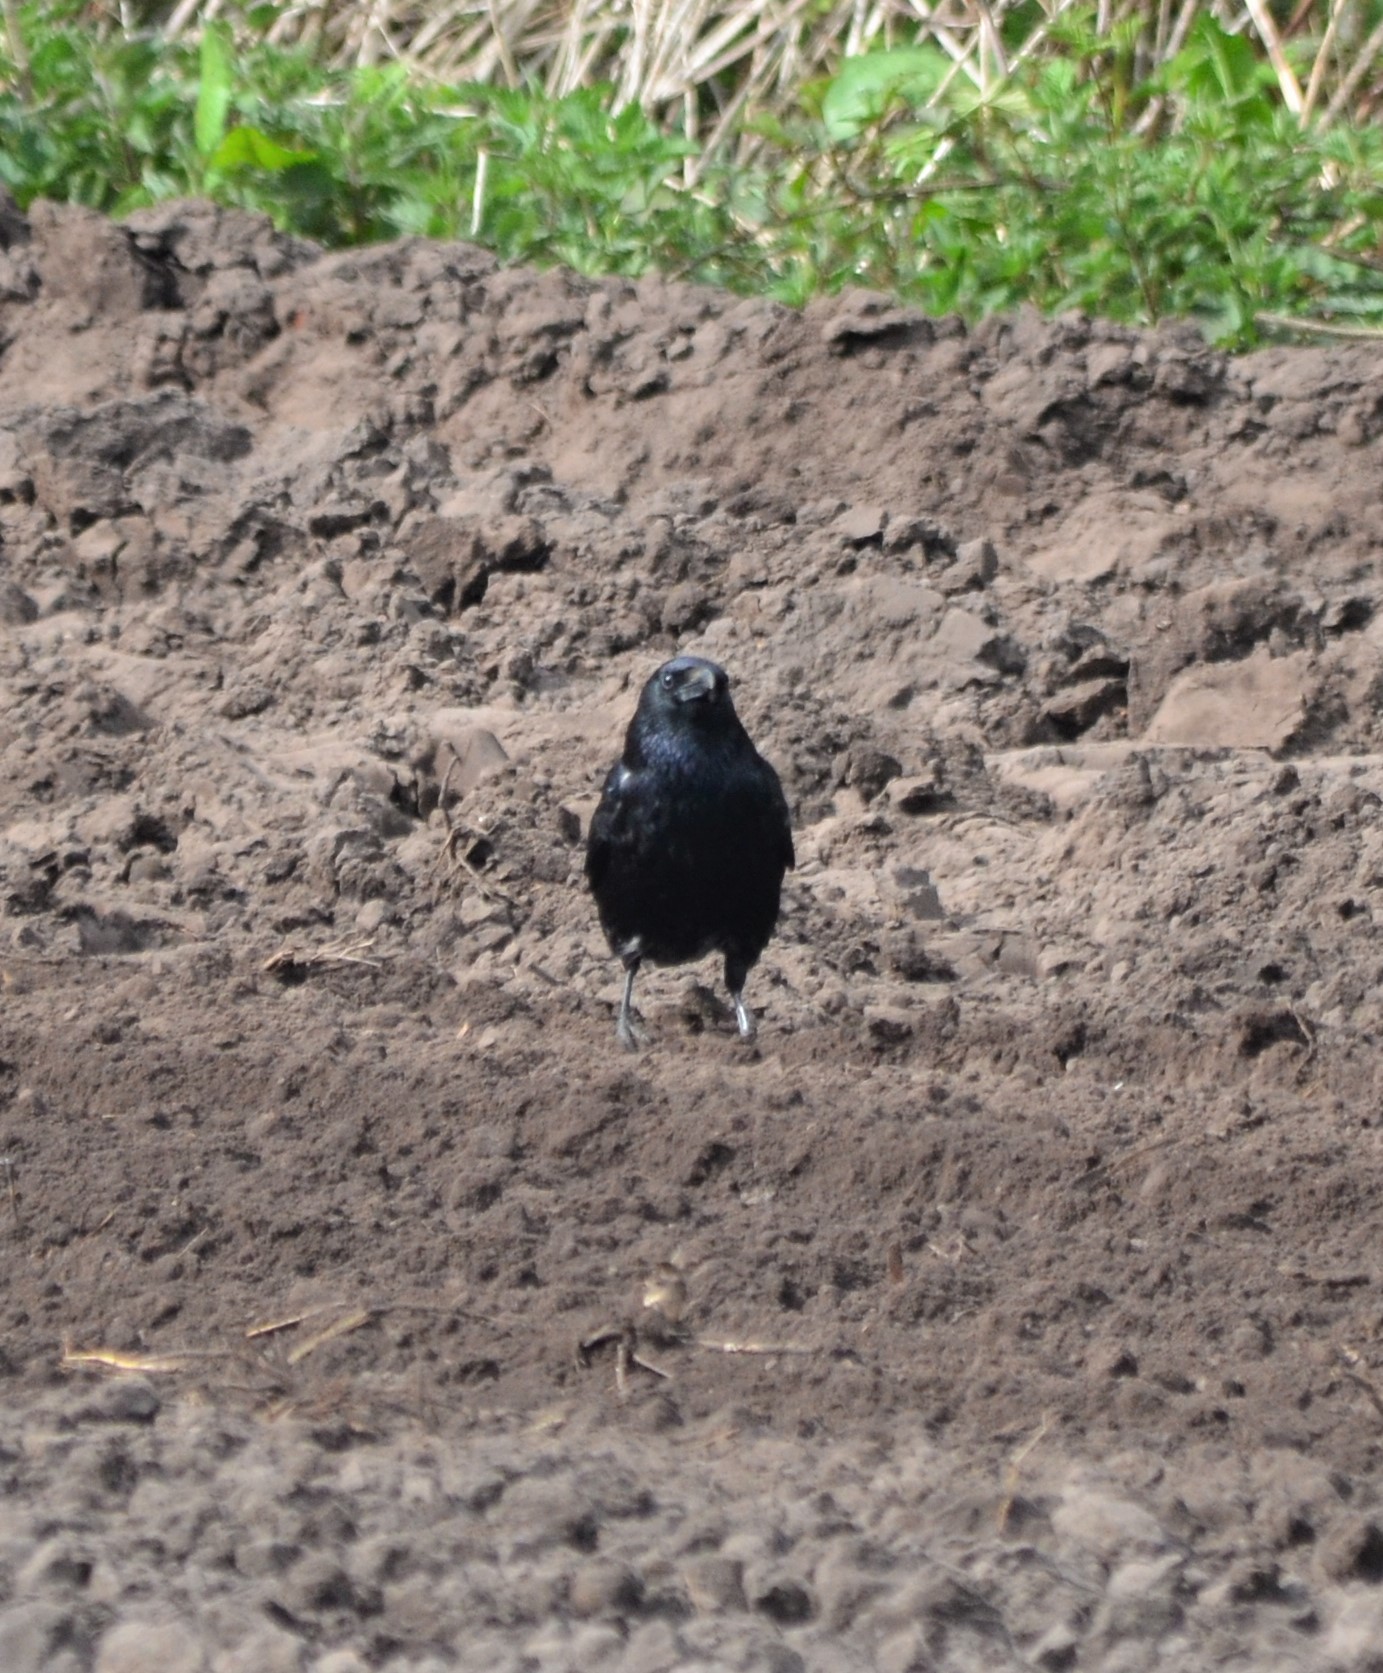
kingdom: Animalia
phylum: Chordata
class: Aves
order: Passeriformes
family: Corvidae
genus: Corvus
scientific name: Corvus corone
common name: Carrion crow
